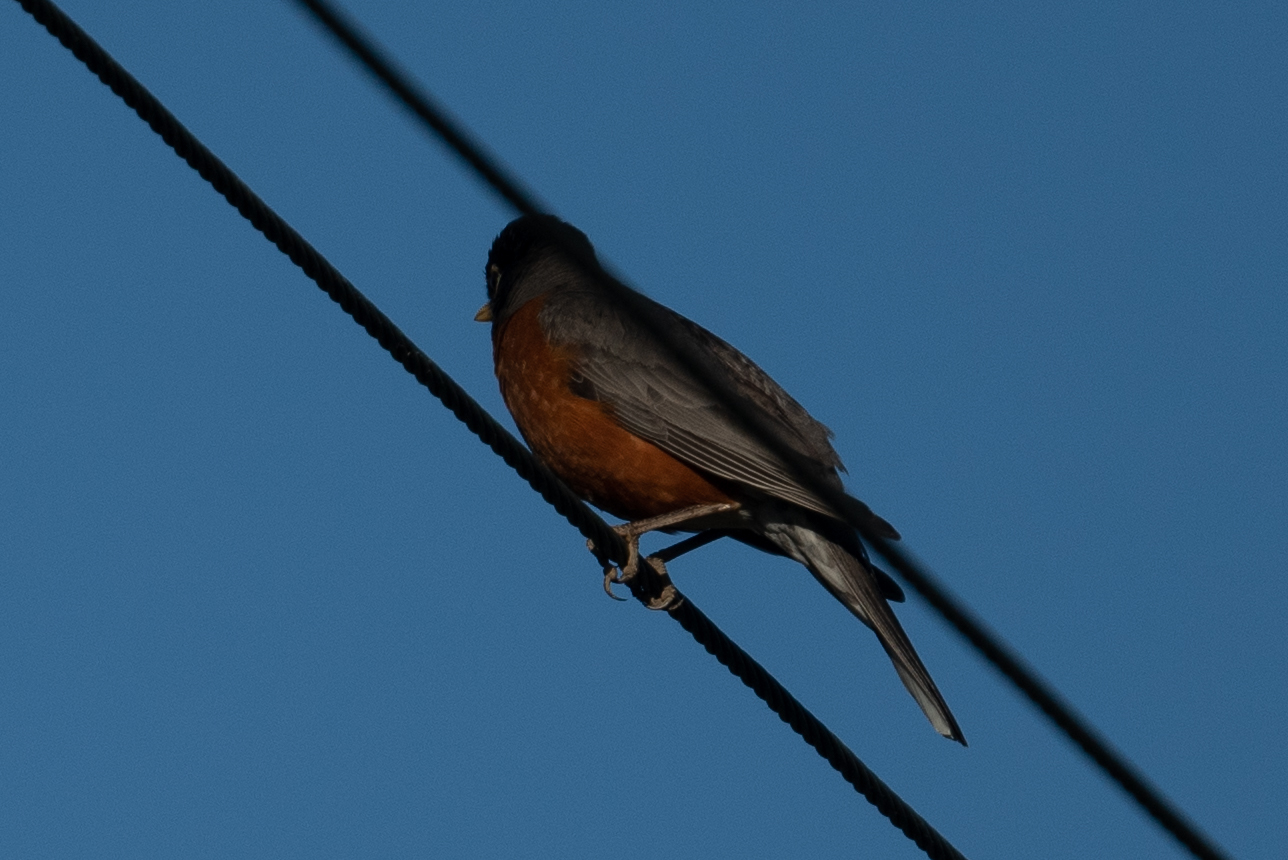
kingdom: Animalia
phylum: Chordata
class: Aves
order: Passeriformes
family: Turdidae
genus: Turdus
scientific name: Turdus migratorius
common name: American robin
